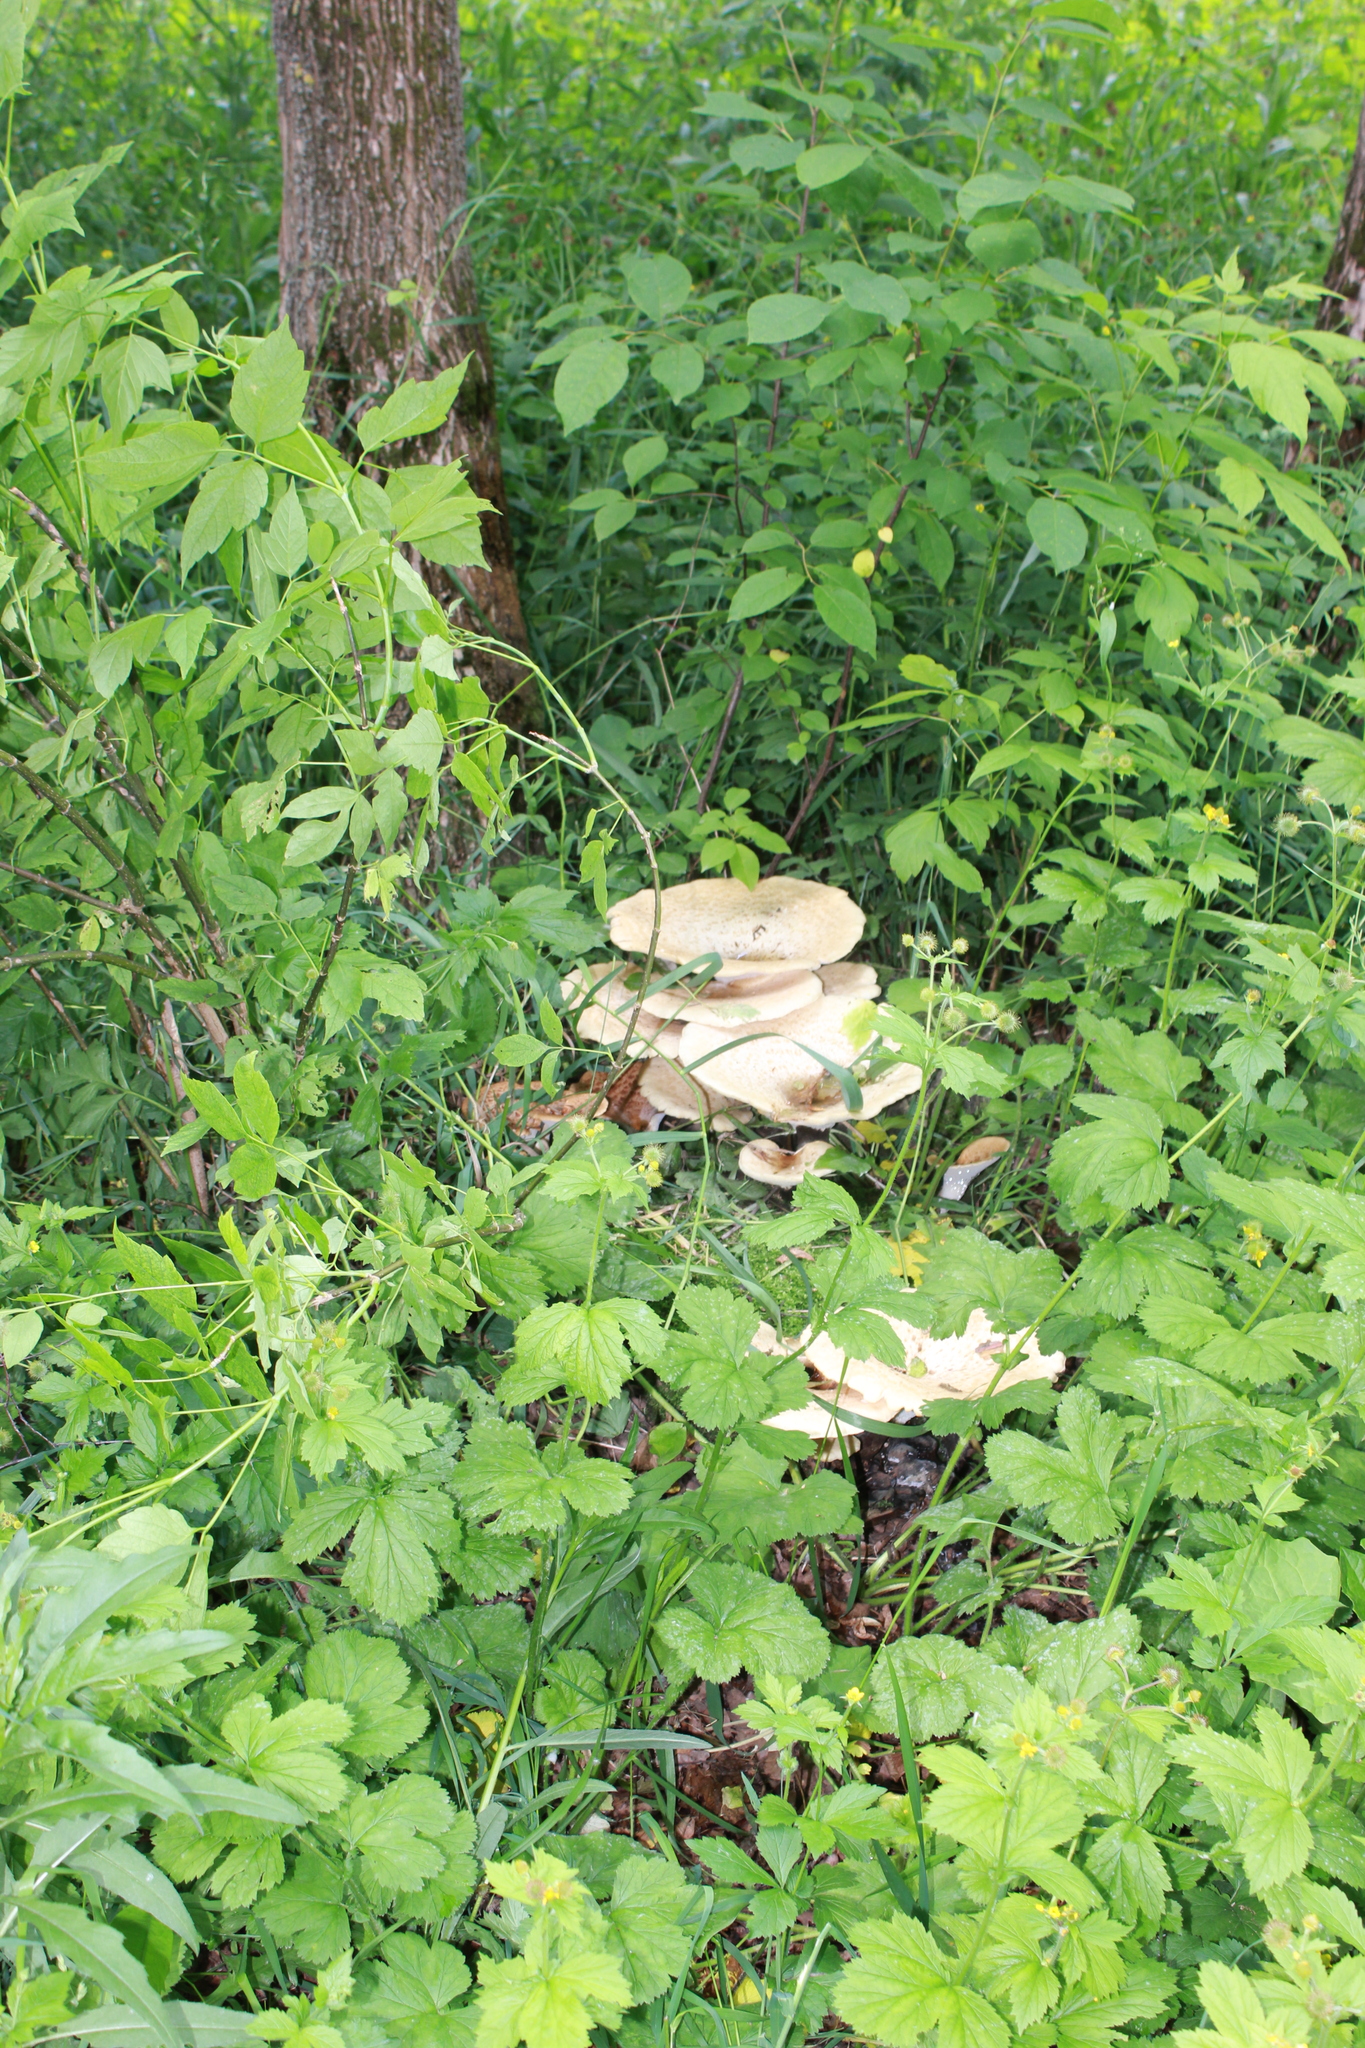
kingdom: Fungi
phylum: Basidiomycota
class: Agaricomycetes
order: Polyporales
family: Polyporaceae
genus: Cerioporus
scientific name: Cerioporus squamosus
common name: Dryad's saddle
